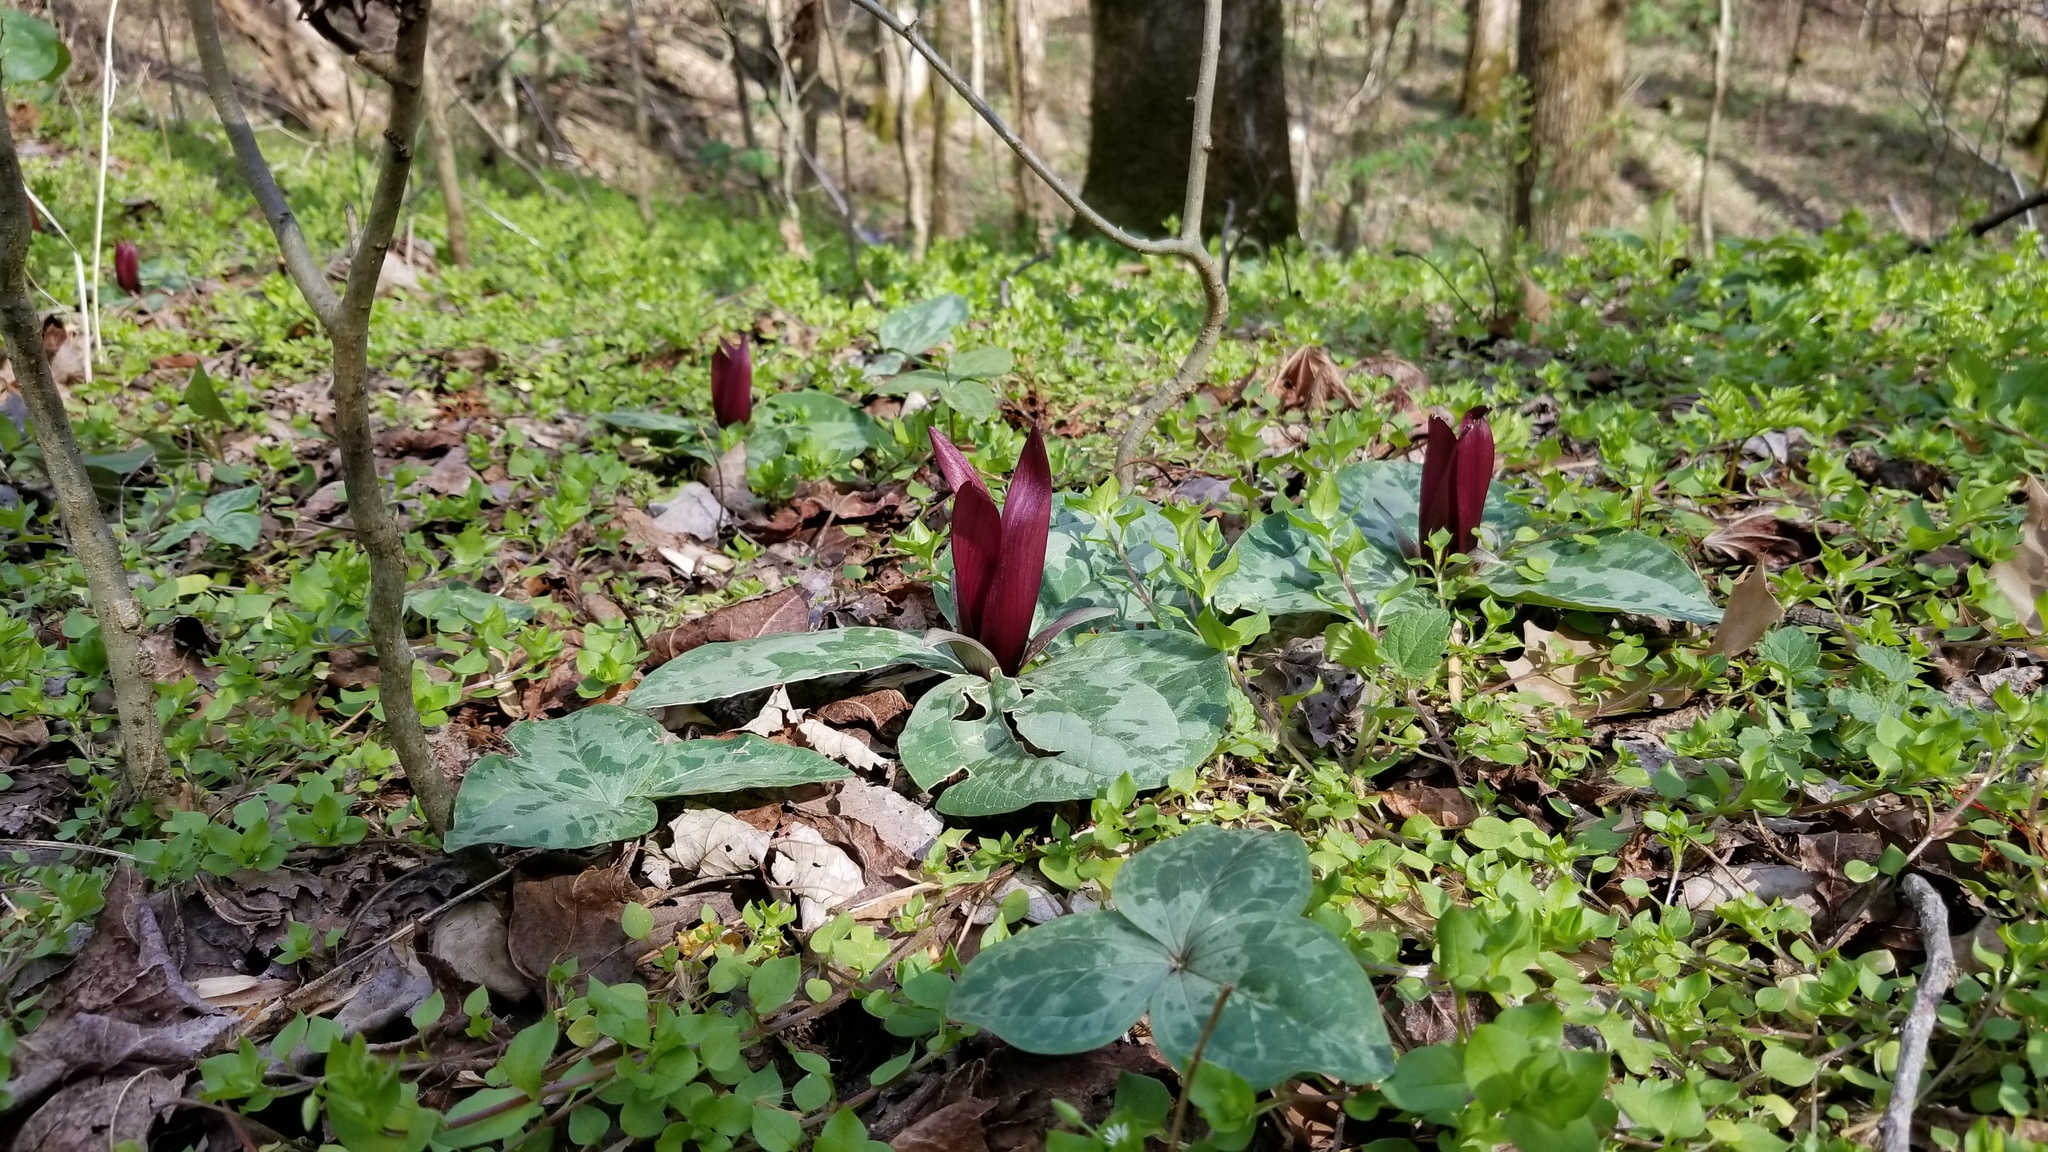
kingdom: Plantae
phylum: Tracheophyta
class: Liliopsida
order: Liliales
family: Melanthiaceae
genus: Trillium
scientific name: Trillium decumbens
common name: Decumbent trillium
